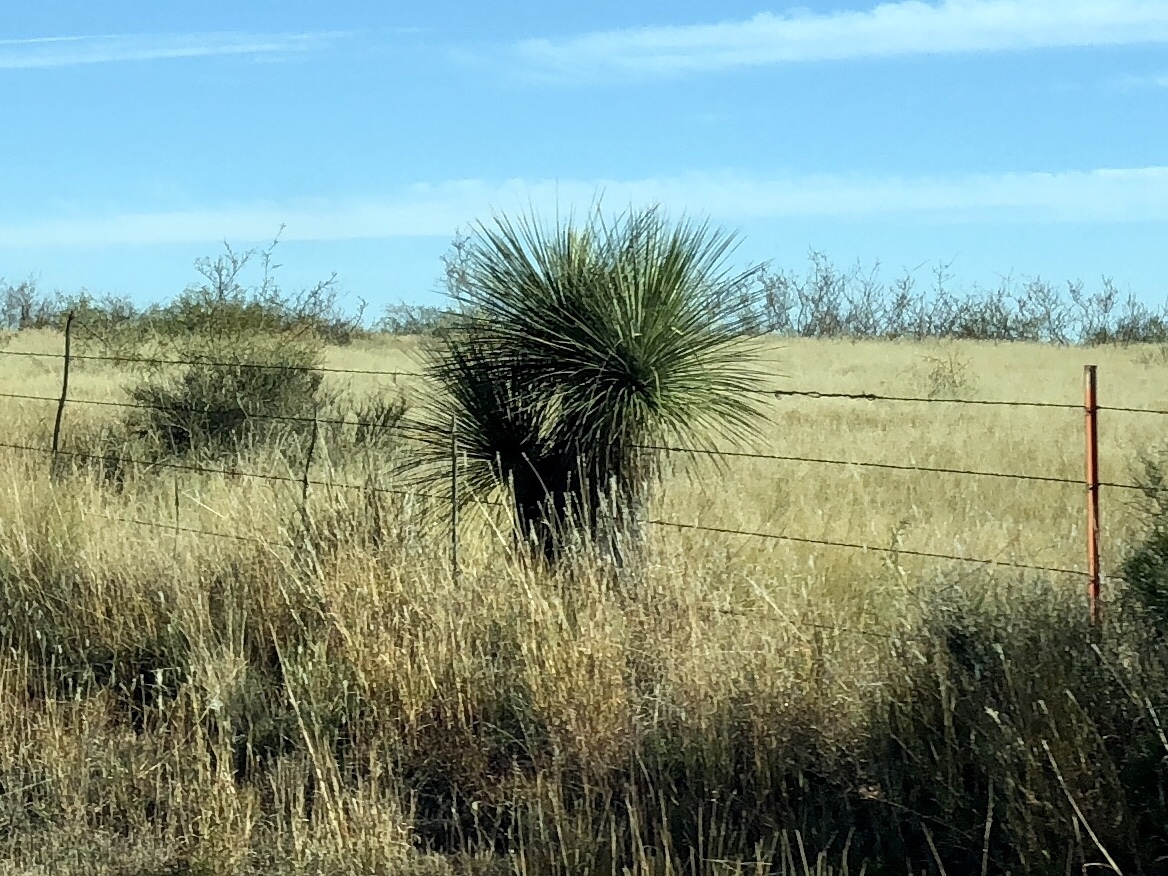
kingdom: Plantae
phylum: Tracheophyta
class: Liliopsida
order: Asparagales
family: Asparagaceae
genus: Yucca
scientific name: Yucca elata
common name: Palmella
